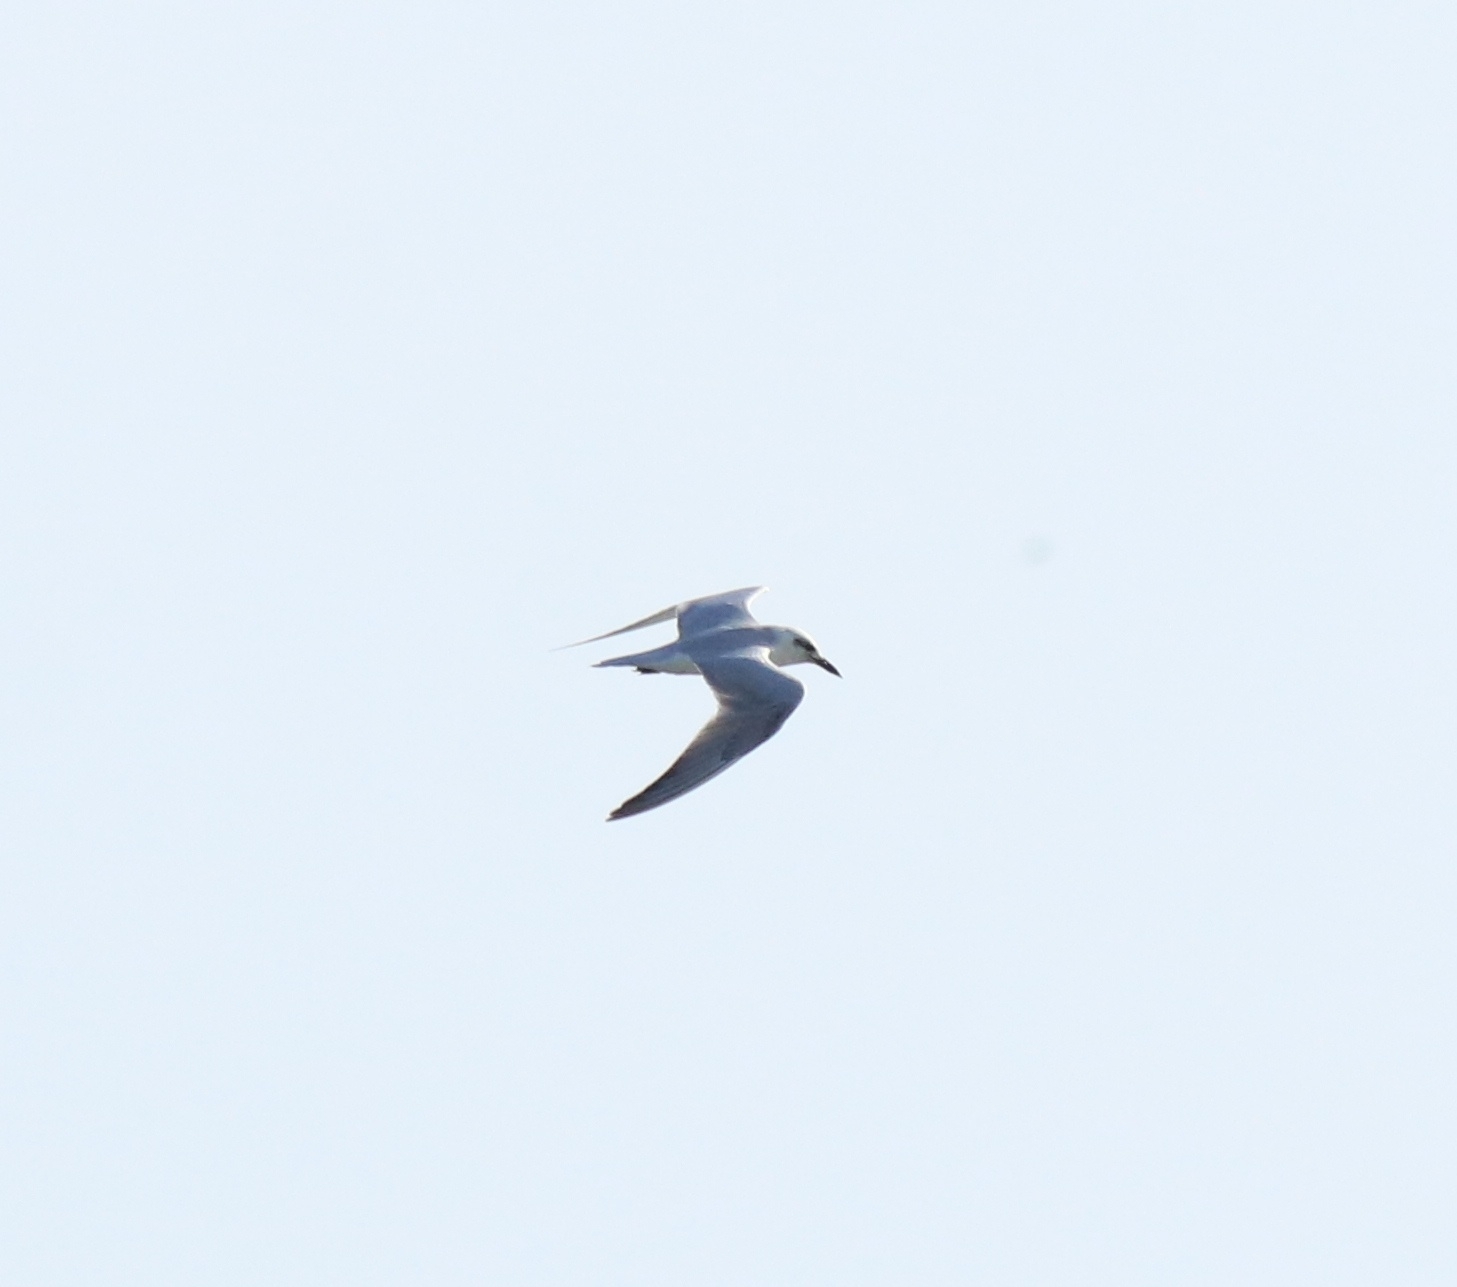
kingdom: Animalia
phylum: Chordata
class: Aves
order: Charadriiformes
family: Laridae
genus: Gelochelidon
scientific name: Gelochelidon nilotica
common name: Gull-billed tern
